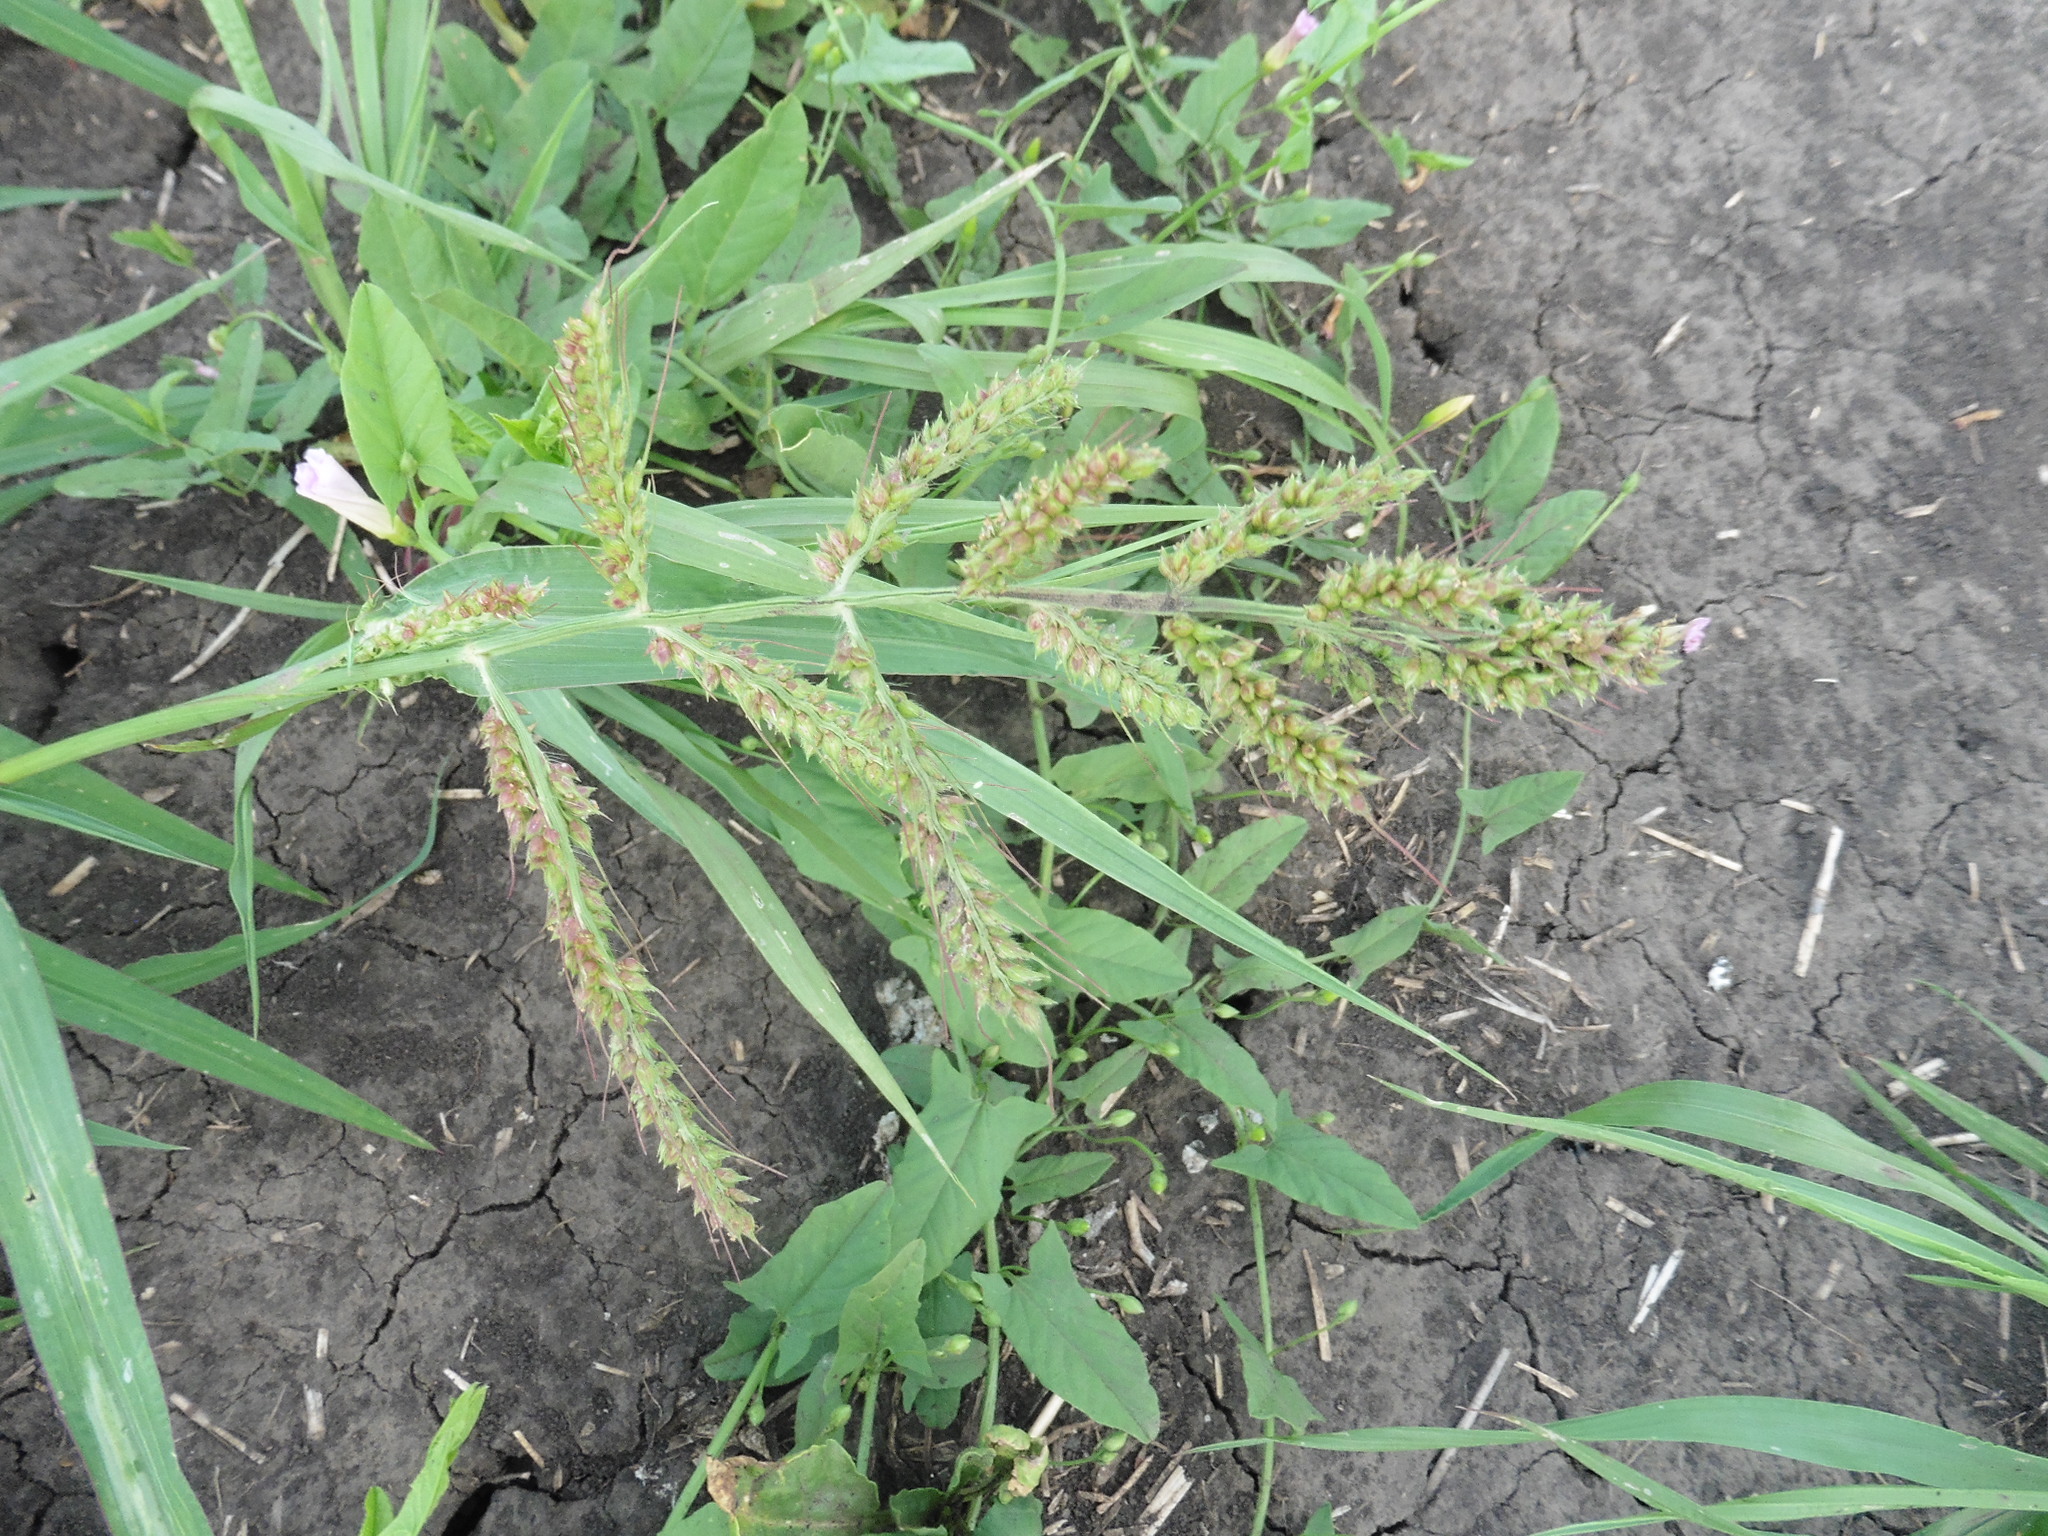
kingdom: Plantae
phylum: Tracheophyta
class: Liliopsida
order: Poales
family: Poaceae
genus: Echinochloa
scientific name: Echinochloa crus-galli
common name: Cockspur
